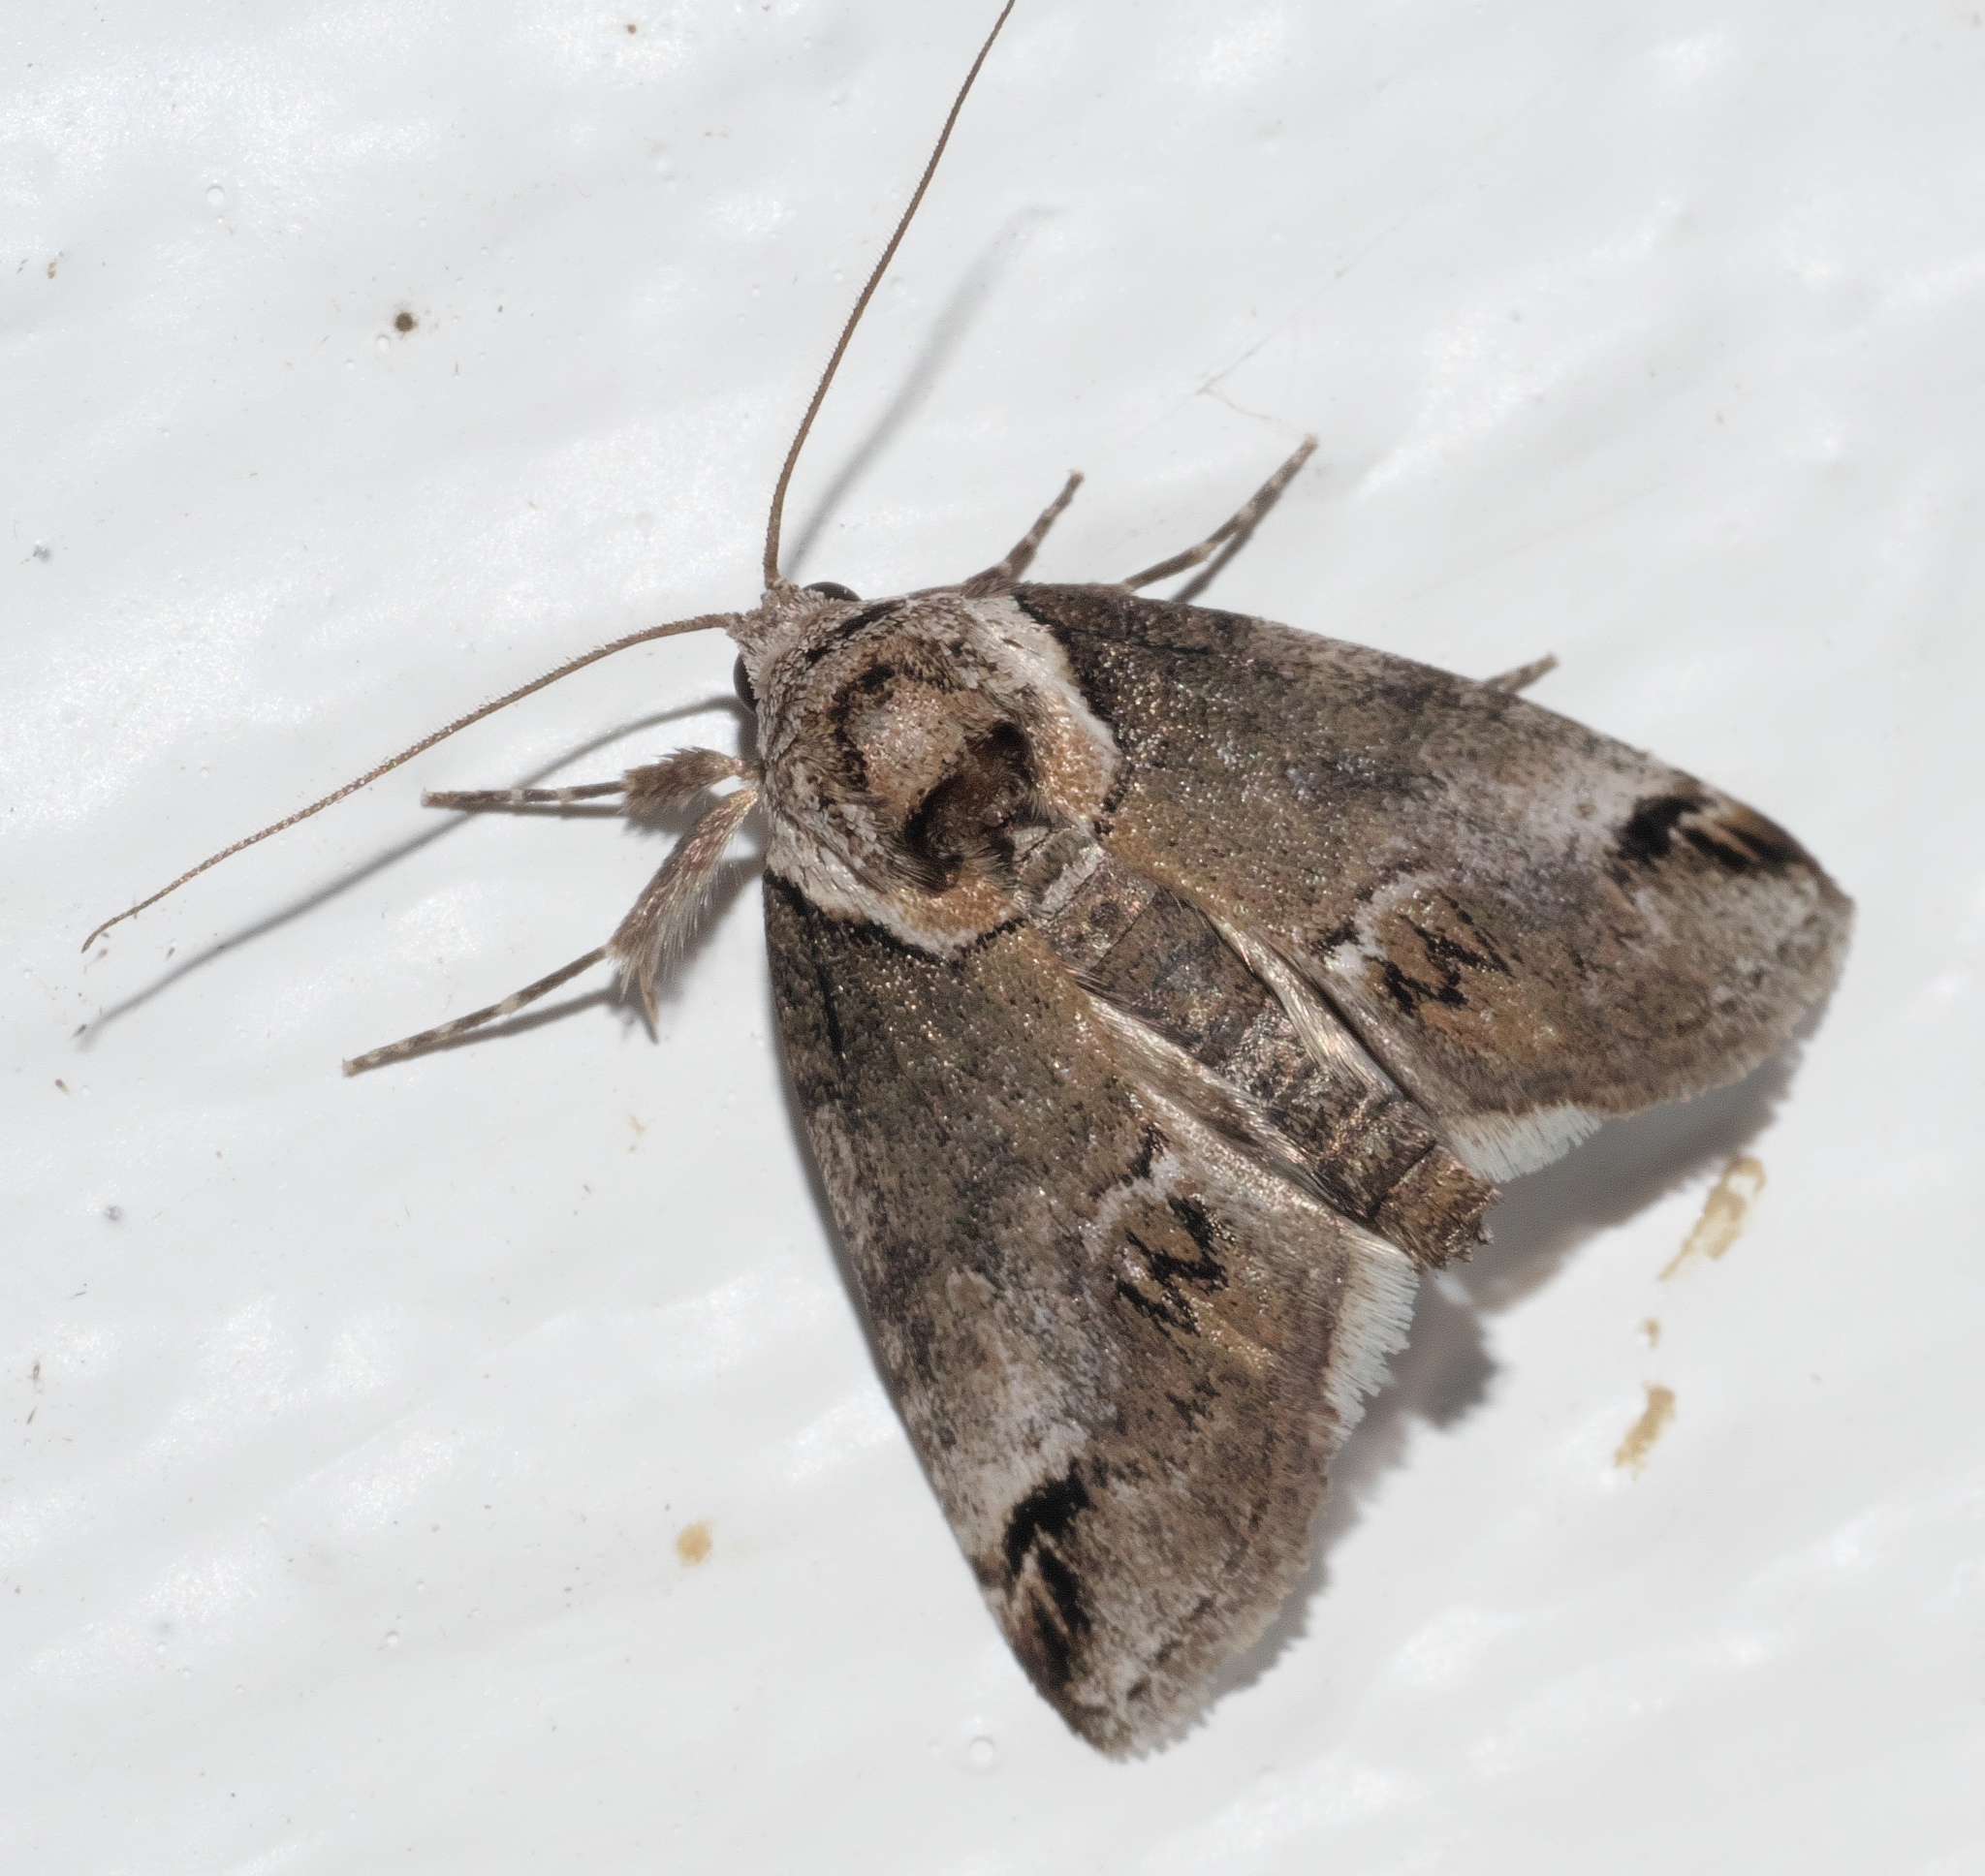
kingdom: Animalia
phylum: Arthropoda
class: Insecta
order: Lepidoptera
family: Nolidae
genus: Baileya
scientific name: Baileya australis
